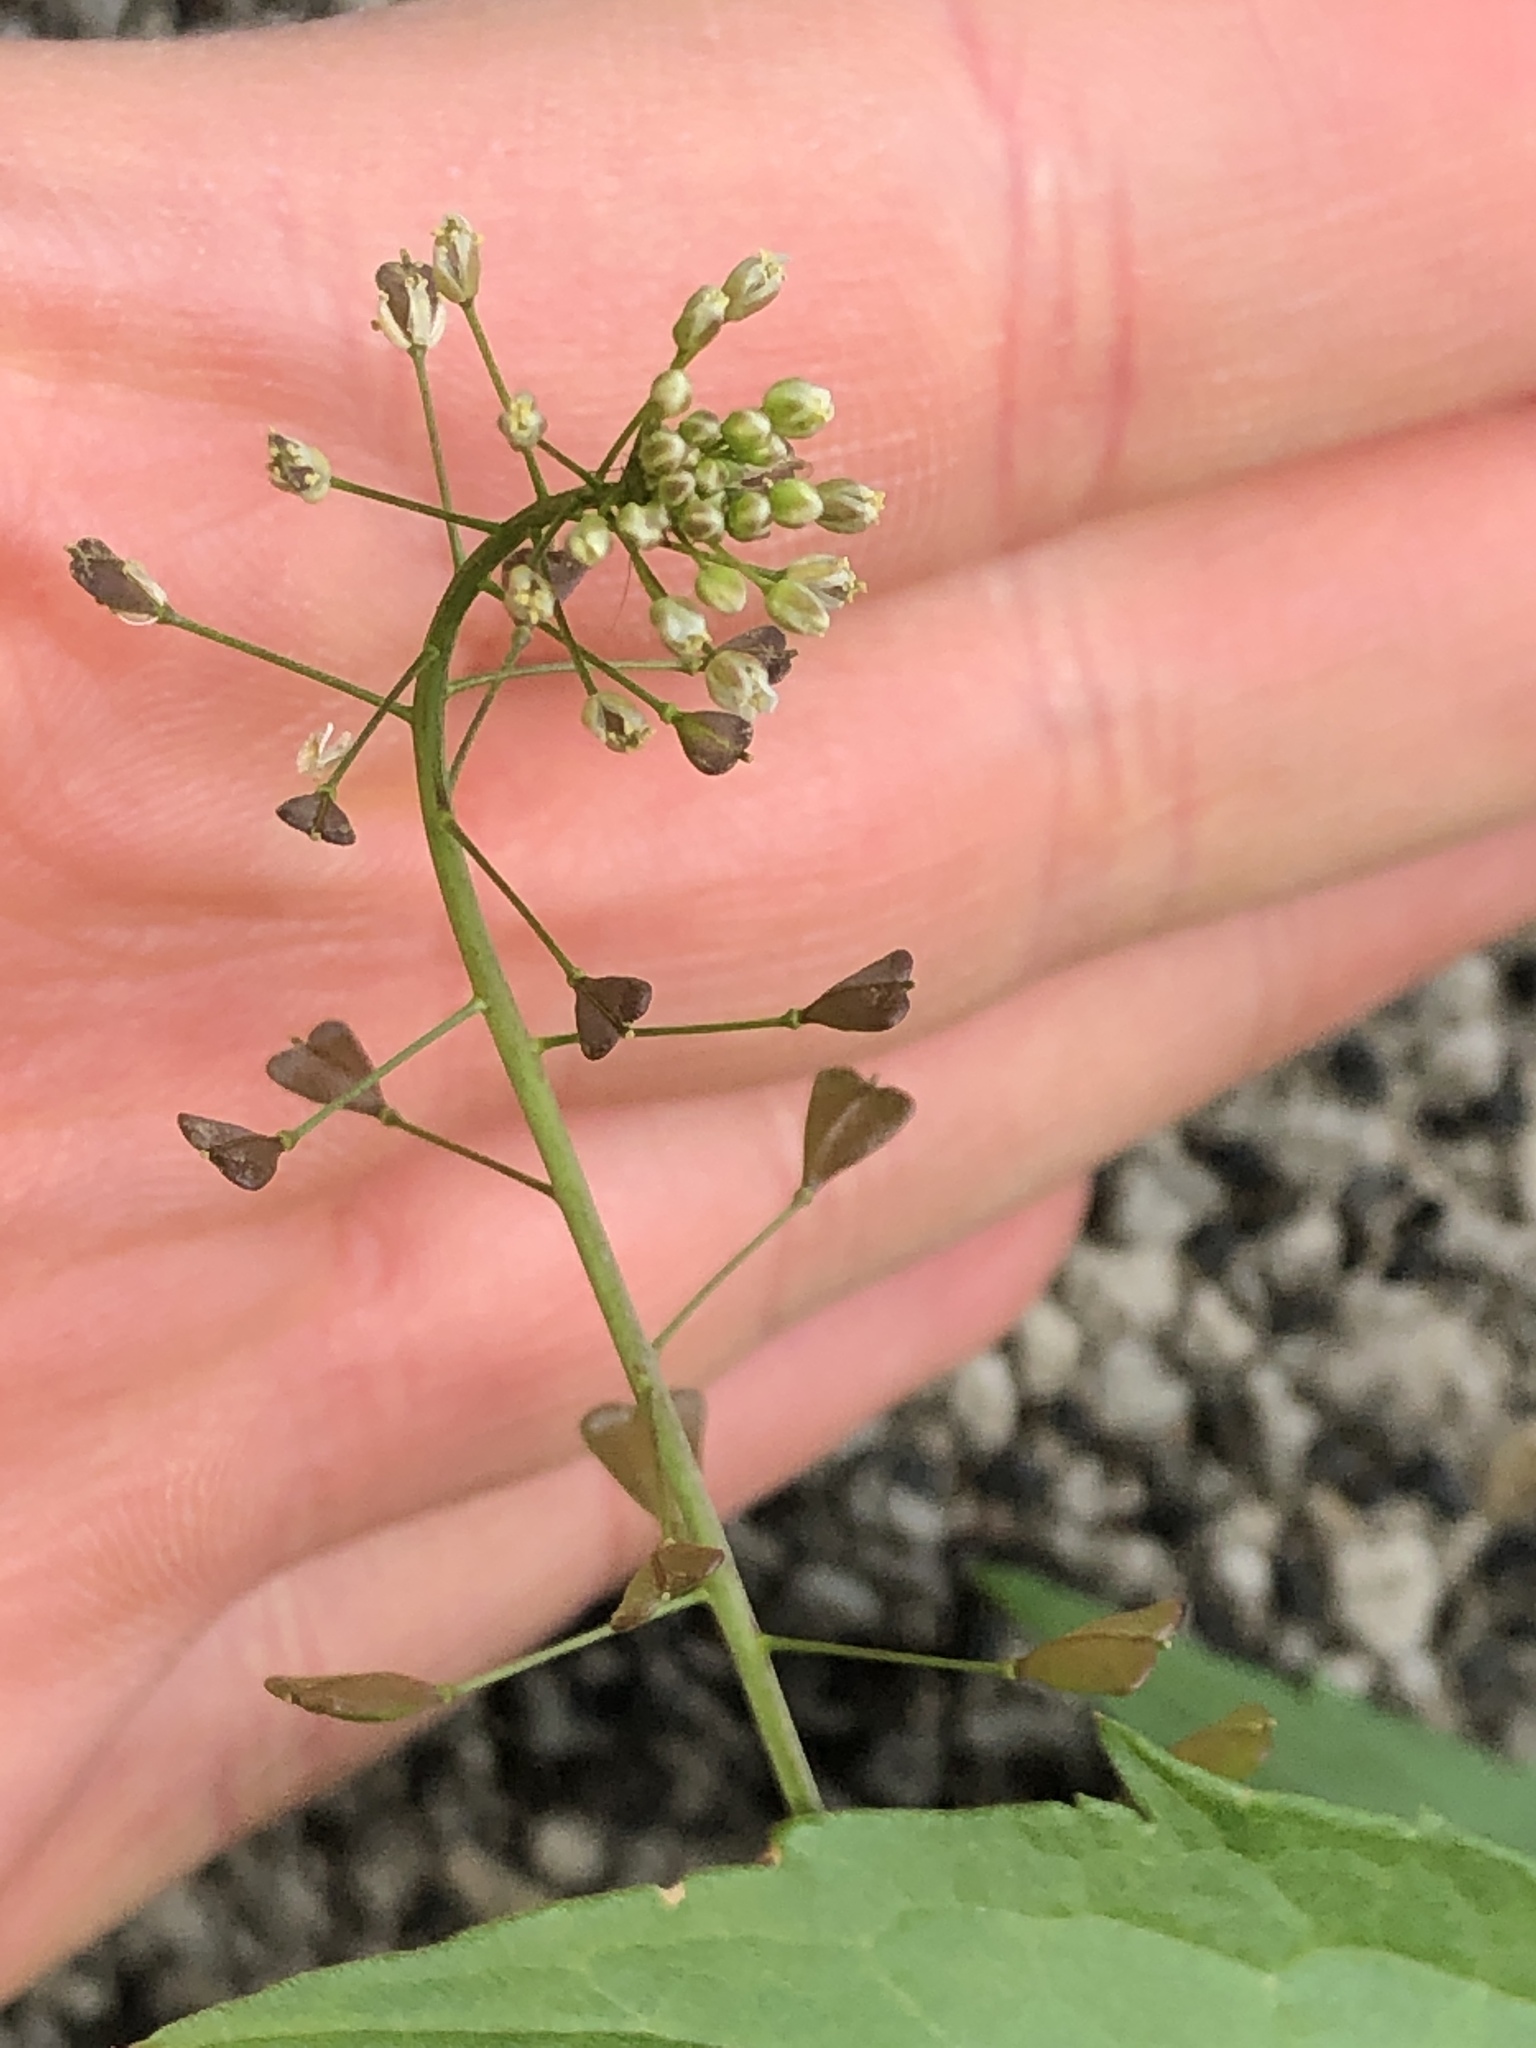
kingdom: Plantae
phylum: Tracheophyta
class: Magnoliopsida
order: Brassicales
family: Brassicaceae
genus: Capsella
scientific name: Capsella bursa-pastoris
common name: Shepherd's purse
